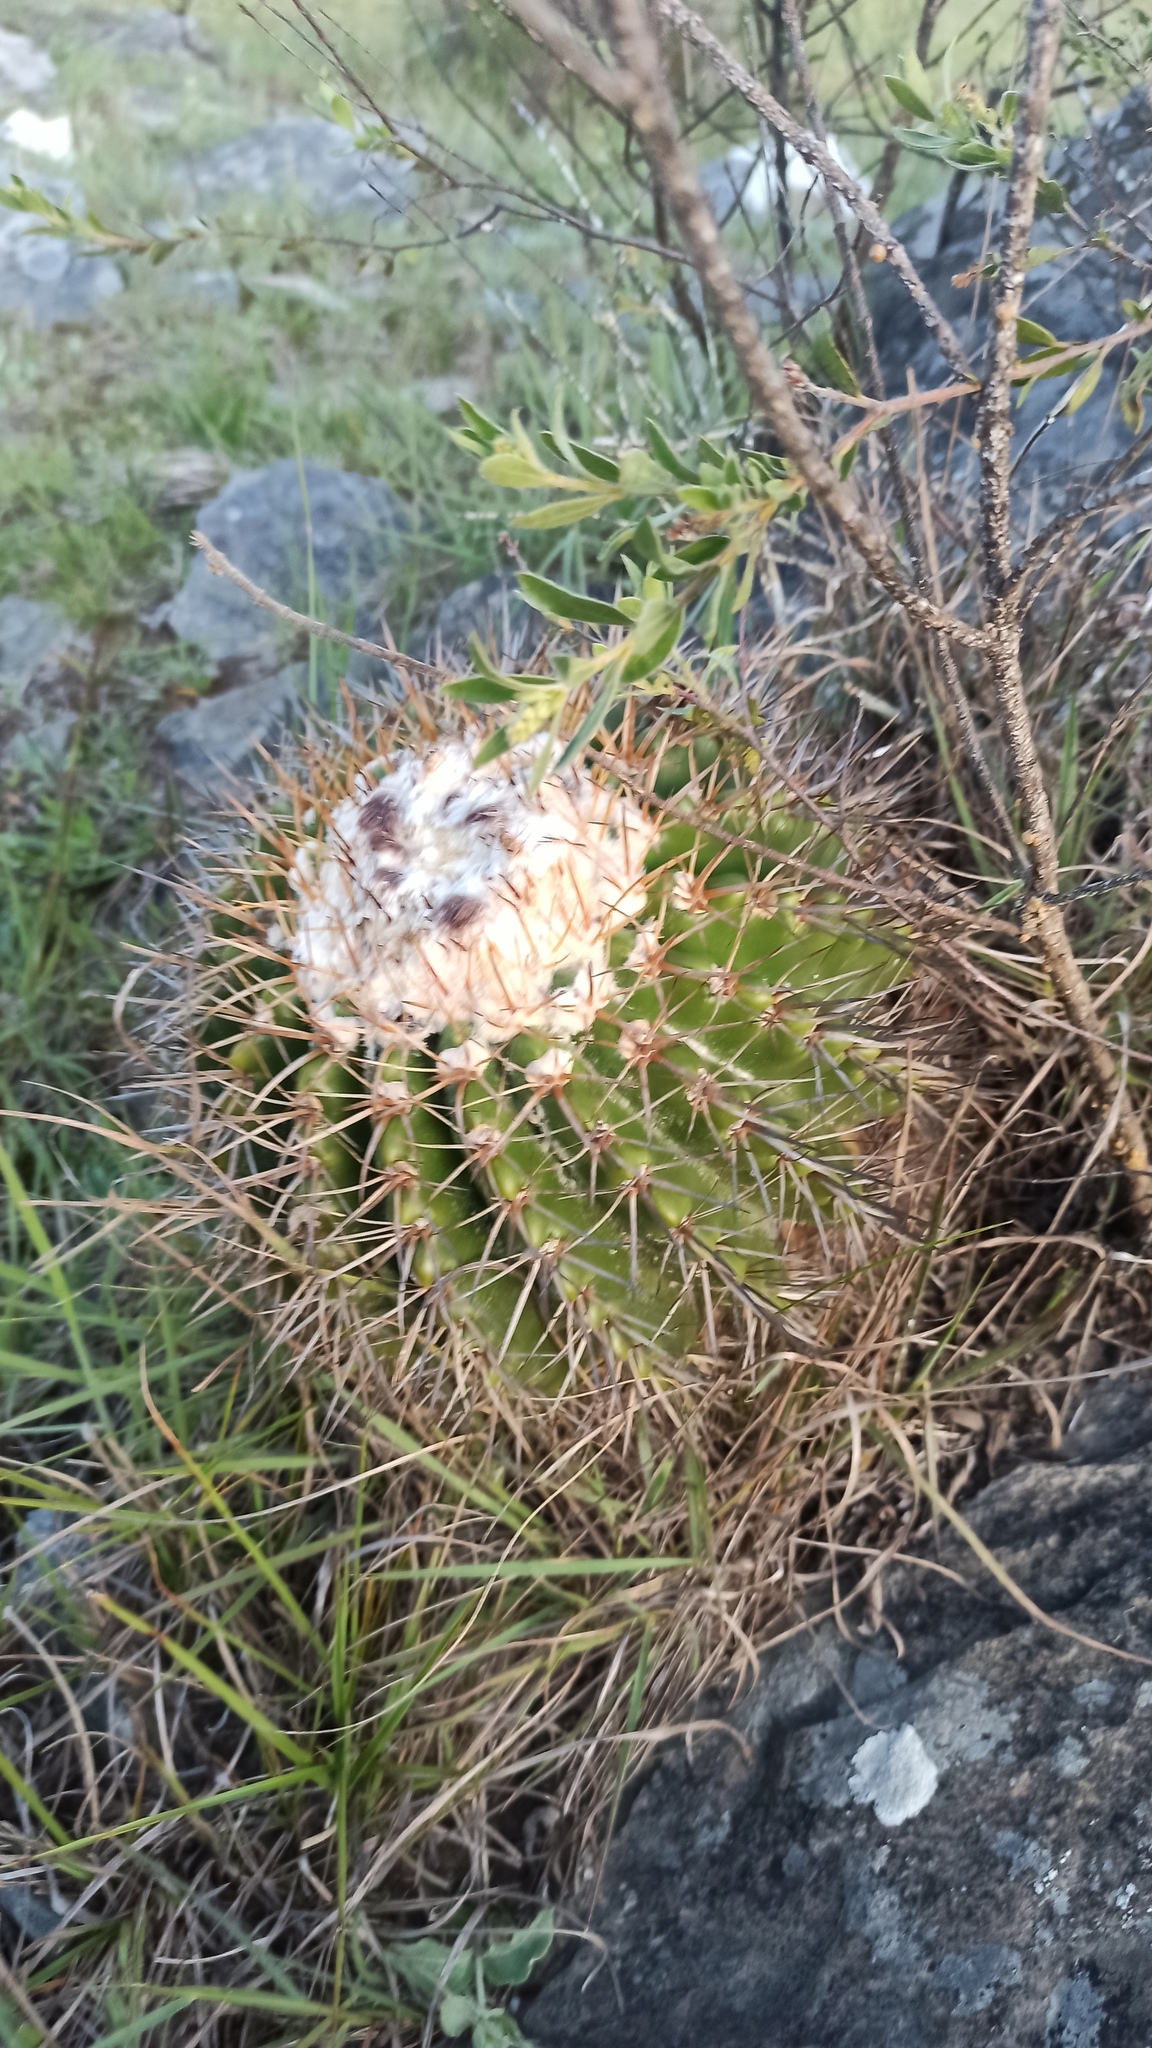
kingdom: Plantae
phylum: Tracheophyta
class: Magnoliopsida
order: Caryophyllales
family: Cactaceae
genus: Parodia
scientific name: Parodia erinacea
